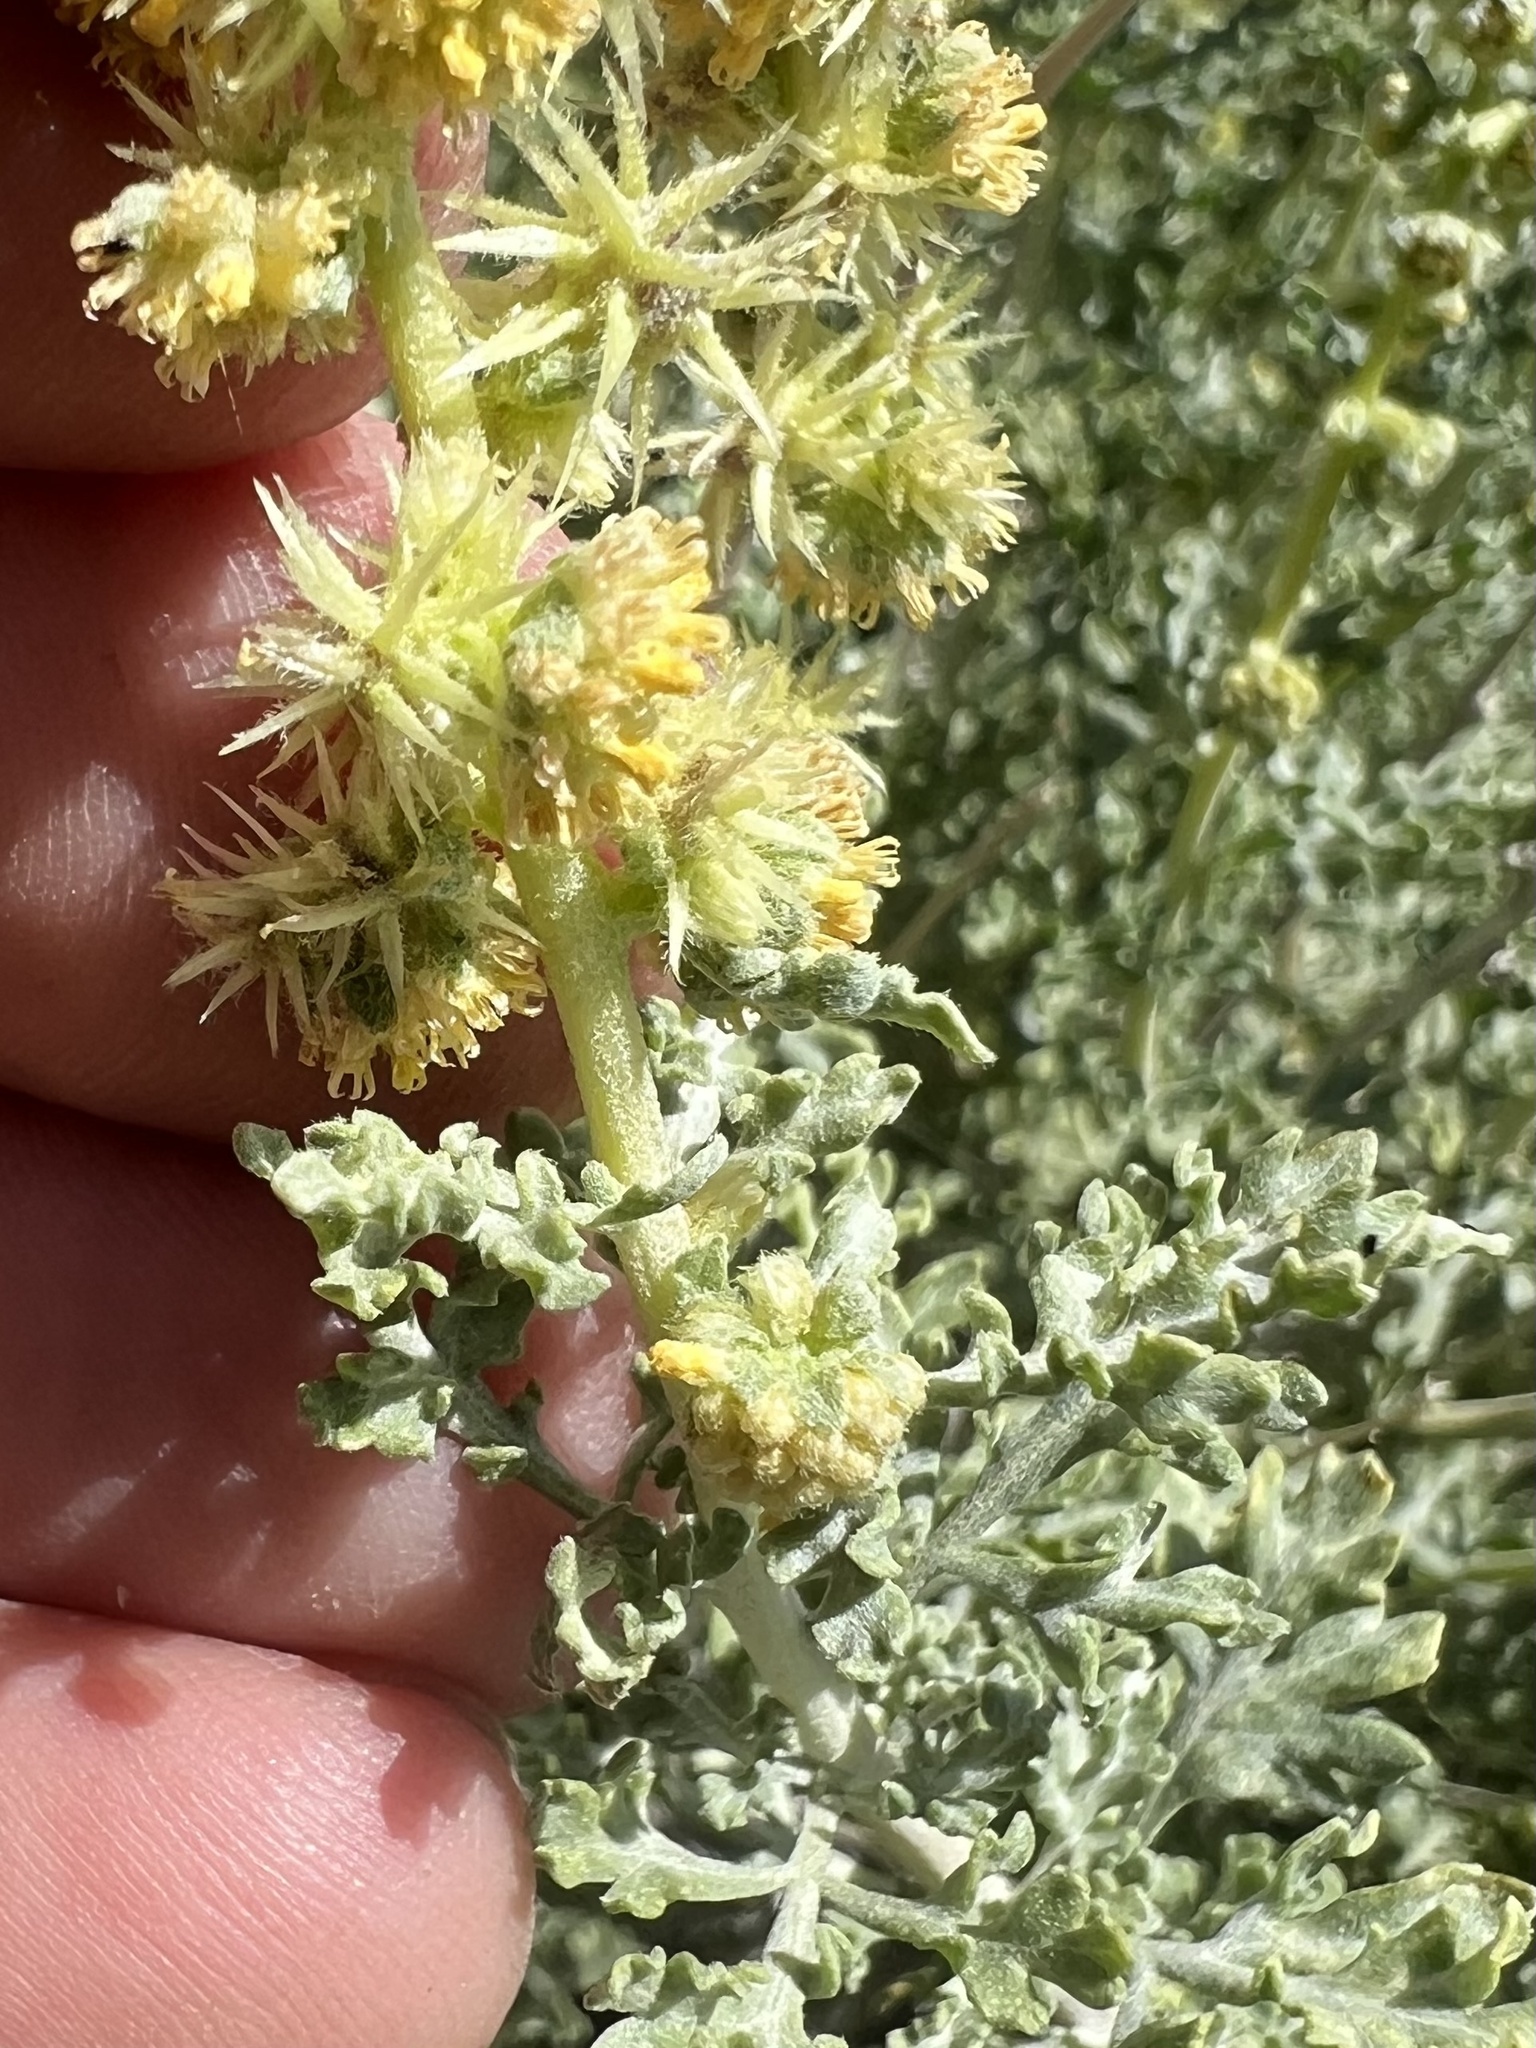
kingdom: Plantae
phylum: Tracheophyta
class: Magnoliopsida
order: Asterales
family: Asteraceae
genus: Ambrosia
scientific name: Ambrosia dumosa
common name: Bur-sage
